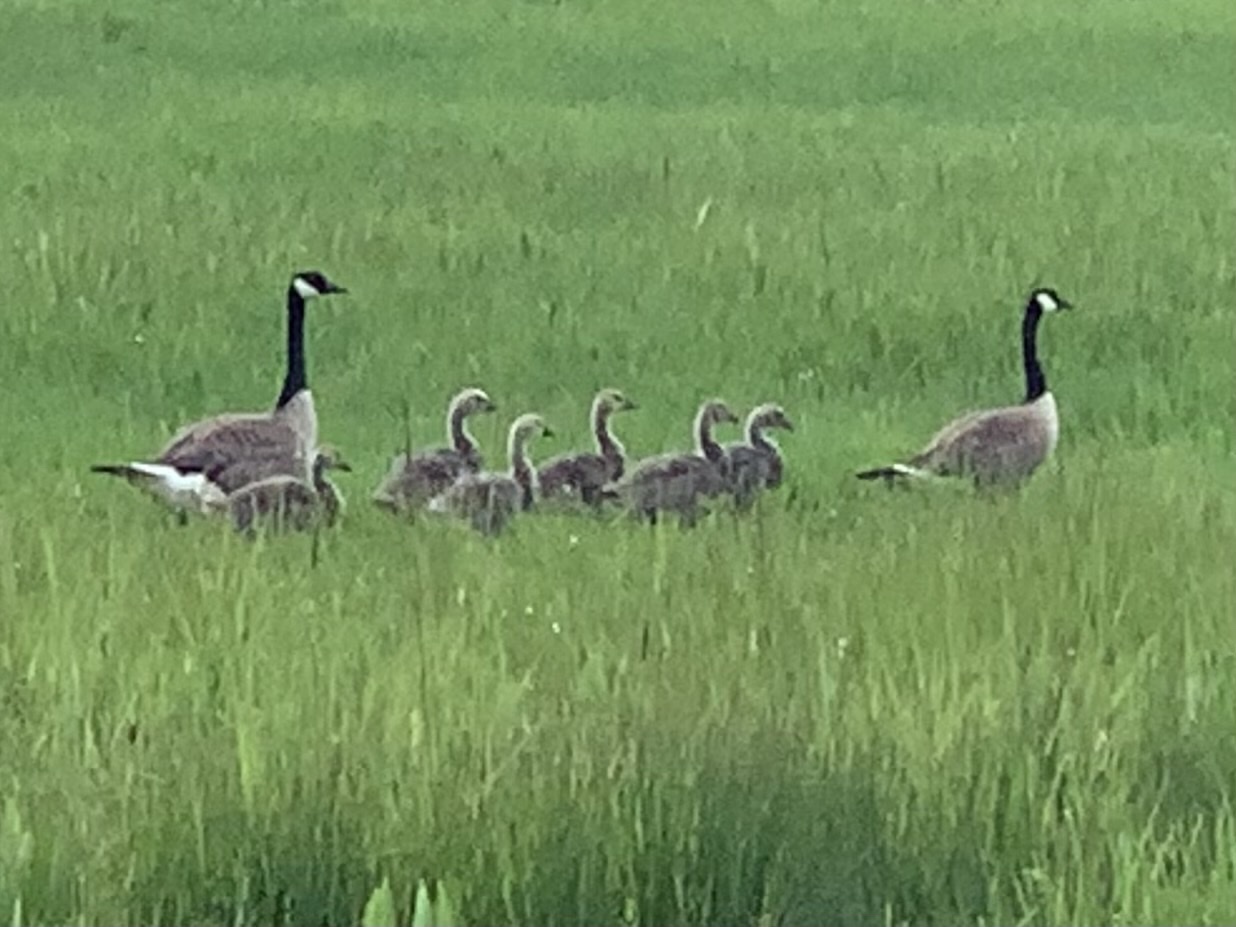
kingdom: Animalia
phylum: Chordata
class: Aves
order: Anseriformes
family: Anatidae
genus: Branta
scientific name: Branta canadensis
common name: Canada goose
